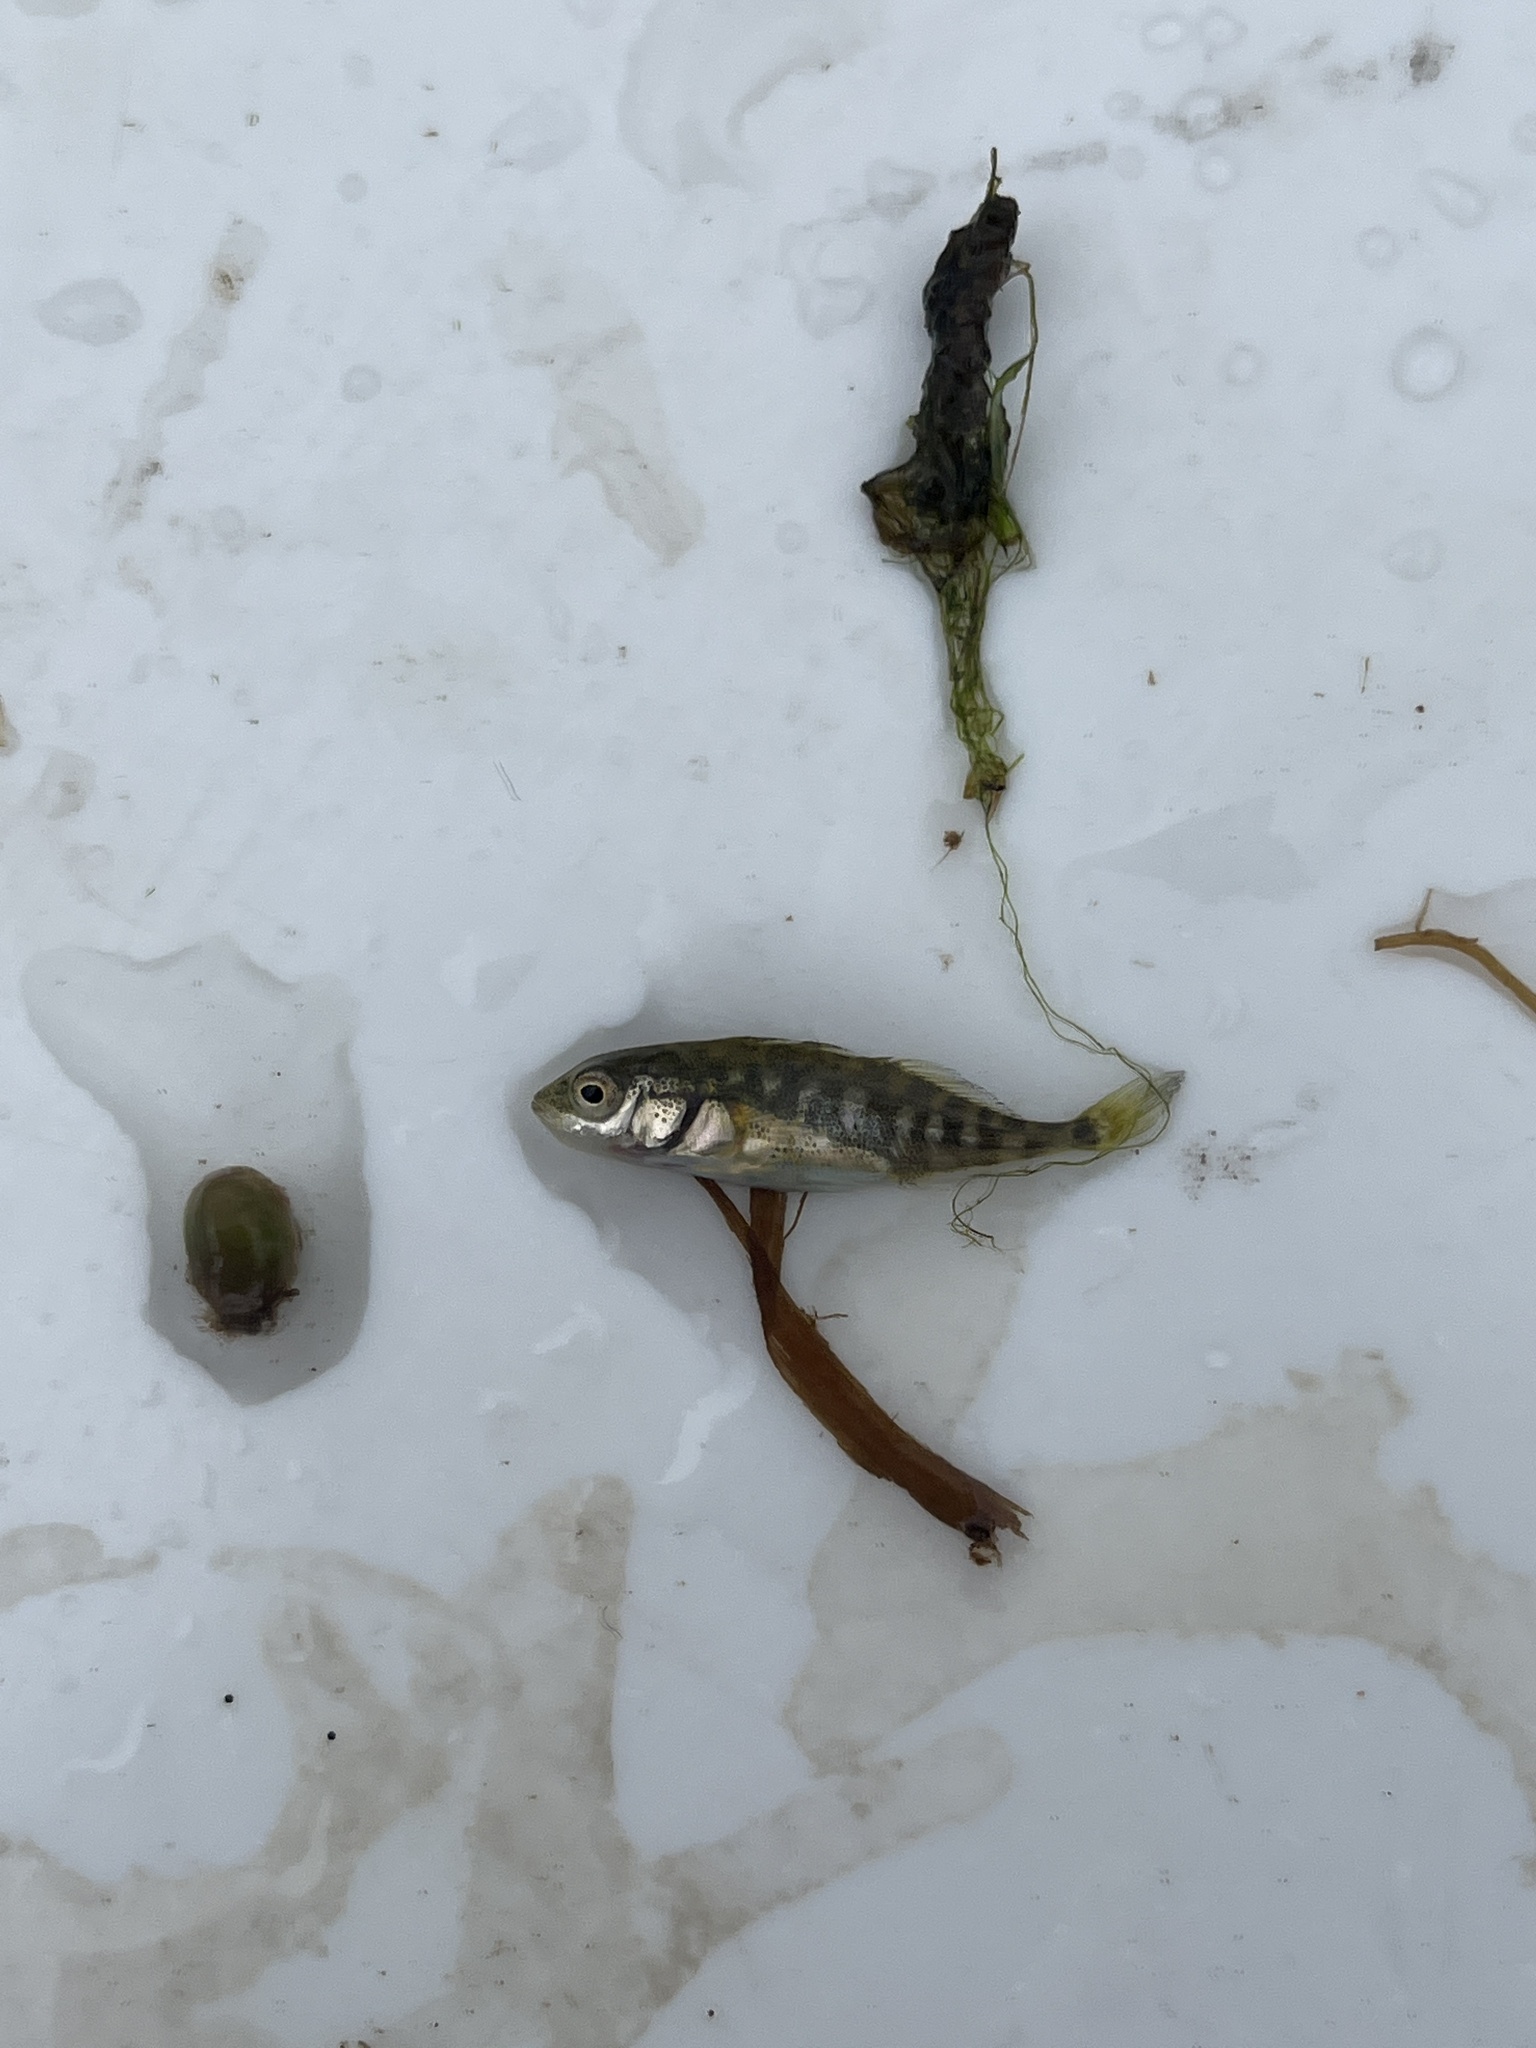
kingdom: Animalia
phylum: Chordata
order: Gasterosteiformes
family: Gasterosteidae
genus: Gasterosteus
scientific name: Gasterosteus aculeatus
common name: Three-spined stickleback
